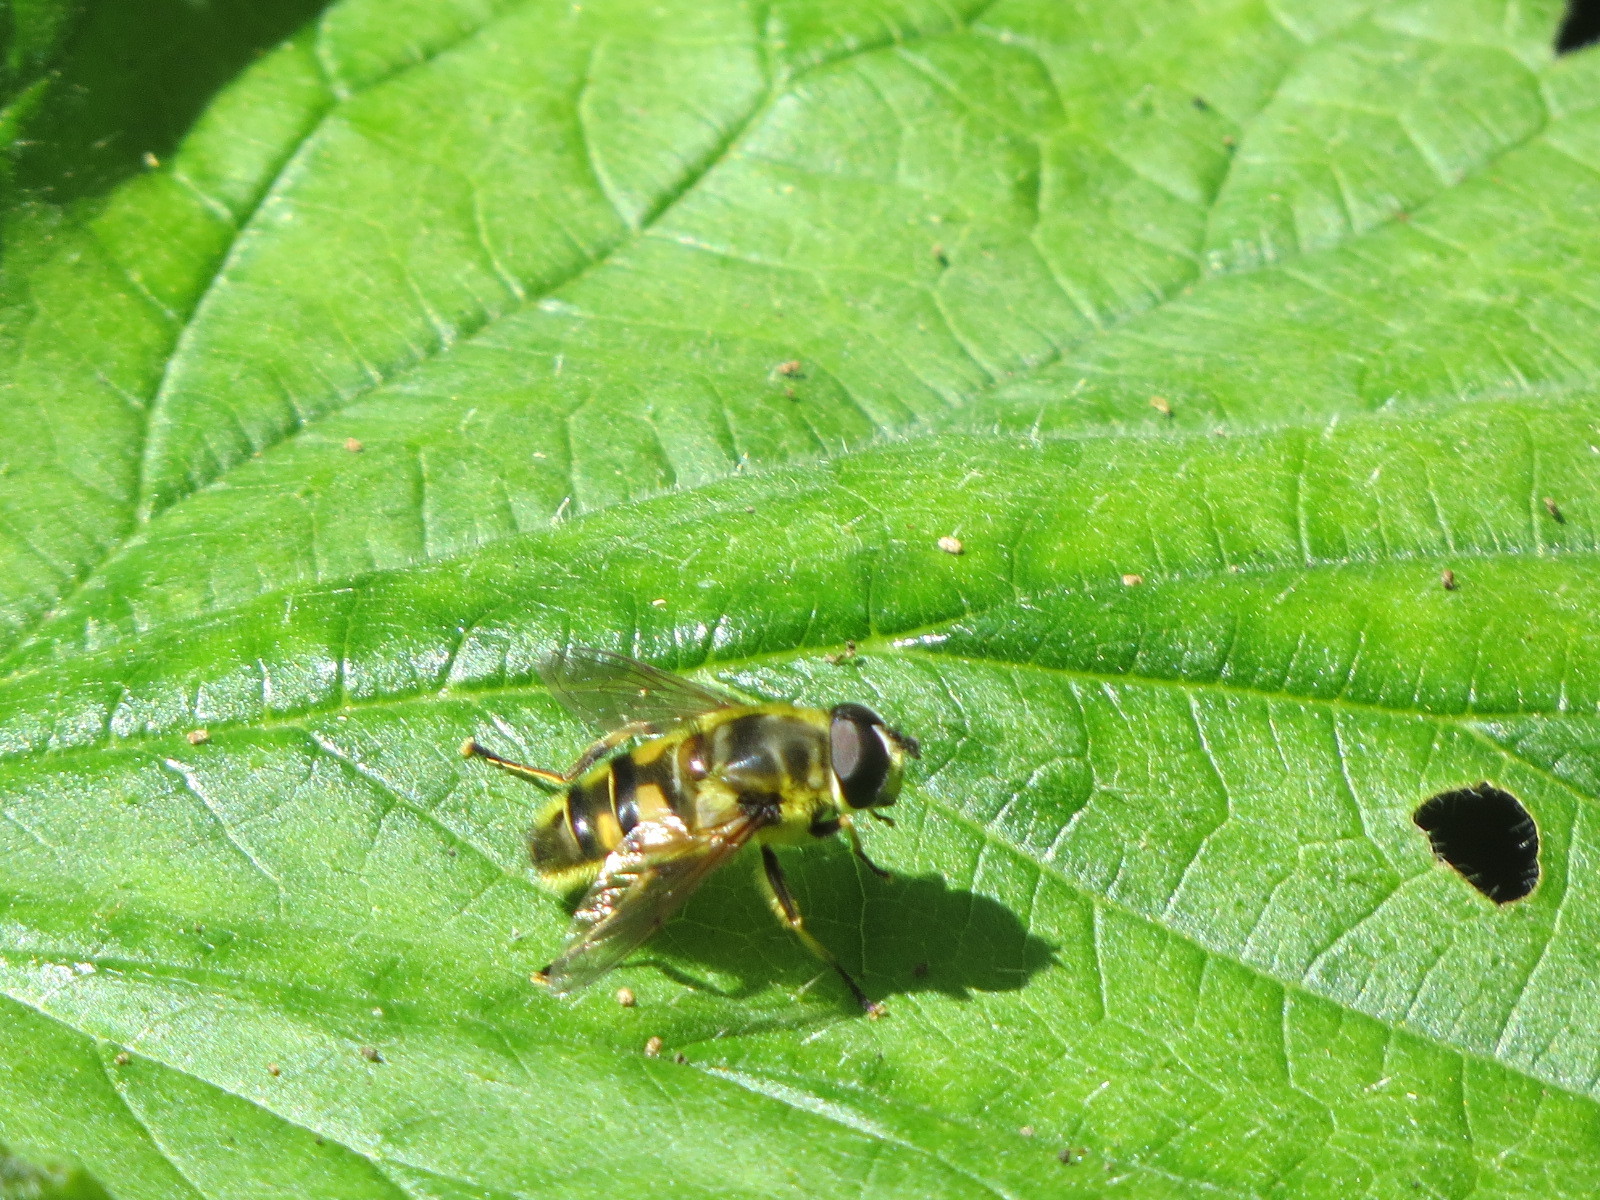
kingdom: Animalia
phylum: Arthropoda
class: Insecta
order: Diptera
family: Syrphidae
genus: Myathropa
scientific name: Myathropa florea
